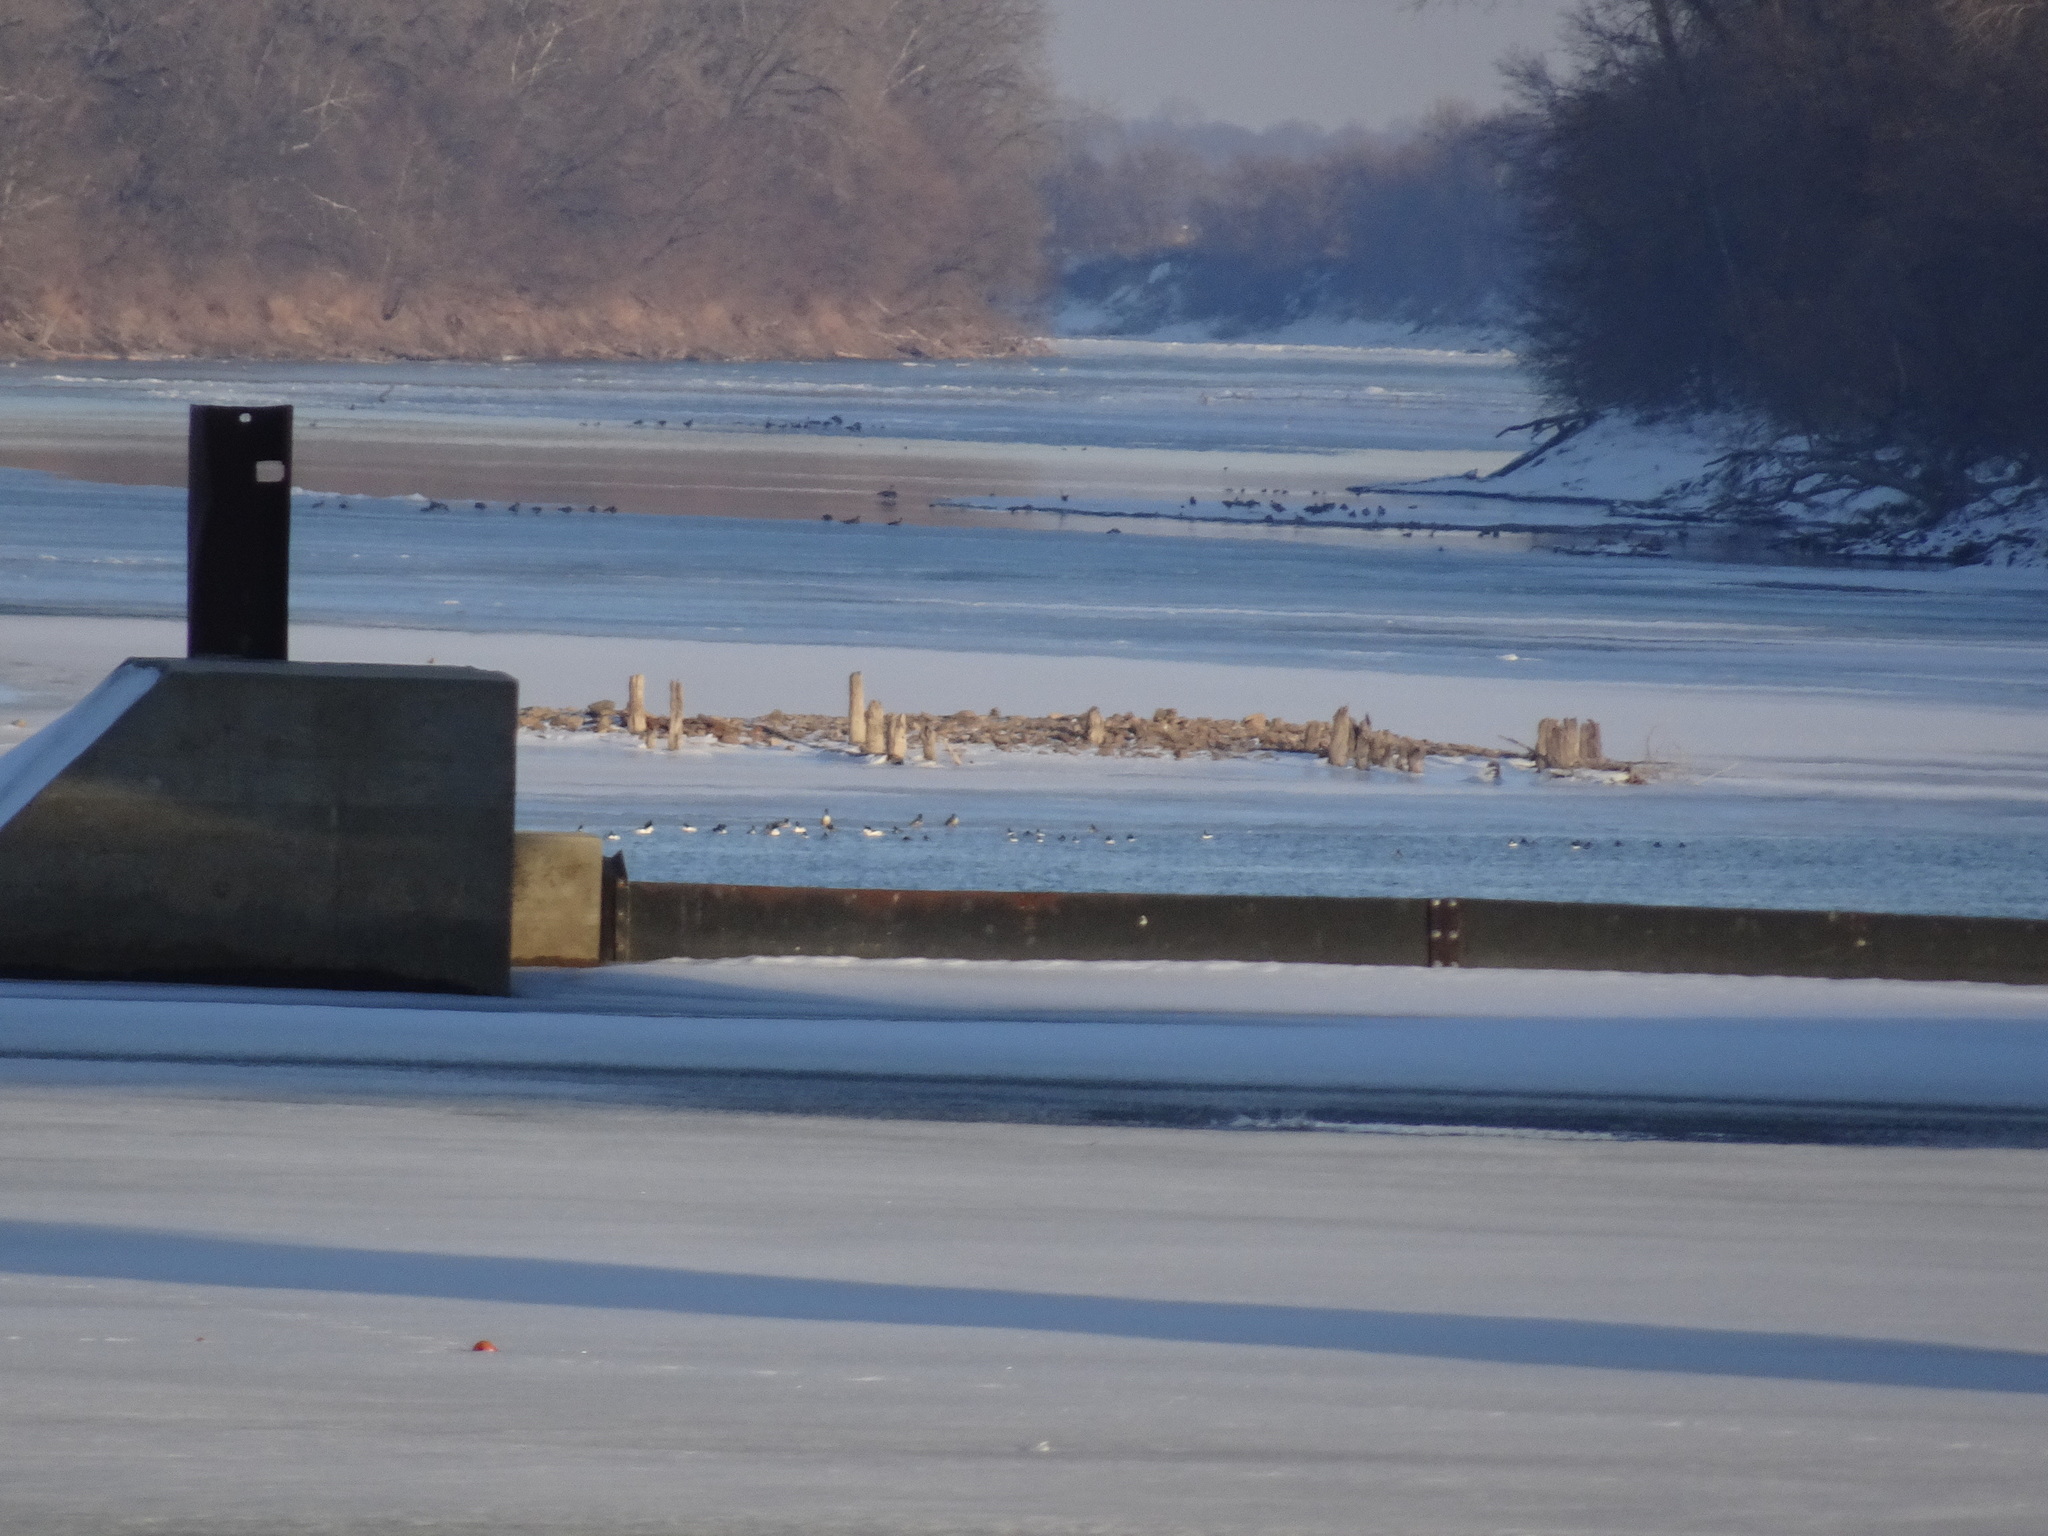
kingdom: Animalia
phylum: Chordata
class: Aves
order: Anseriformes
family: Anatidae
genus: Mergus
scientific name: Mergus merganser
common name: Common merganser
